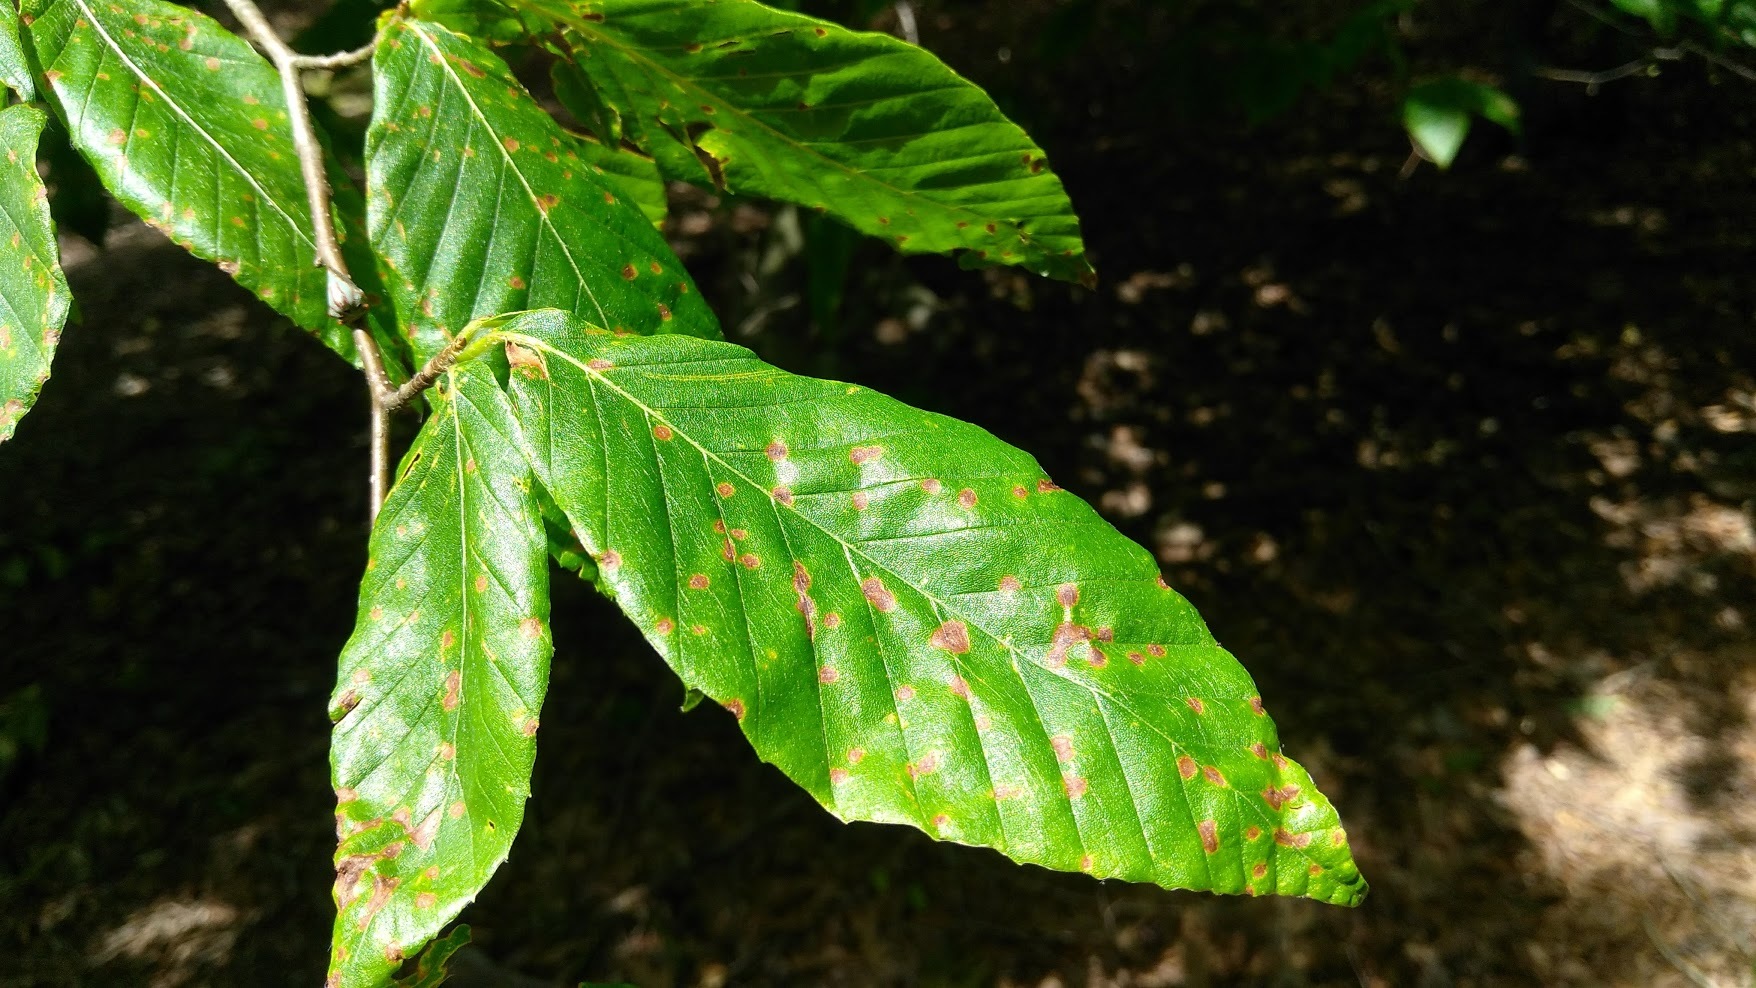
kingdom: Animalia
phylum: Arthropoda
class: Insecta
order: Hemiptera
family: Membracidae
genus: Platycotis
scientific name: Platycotis vittatus
